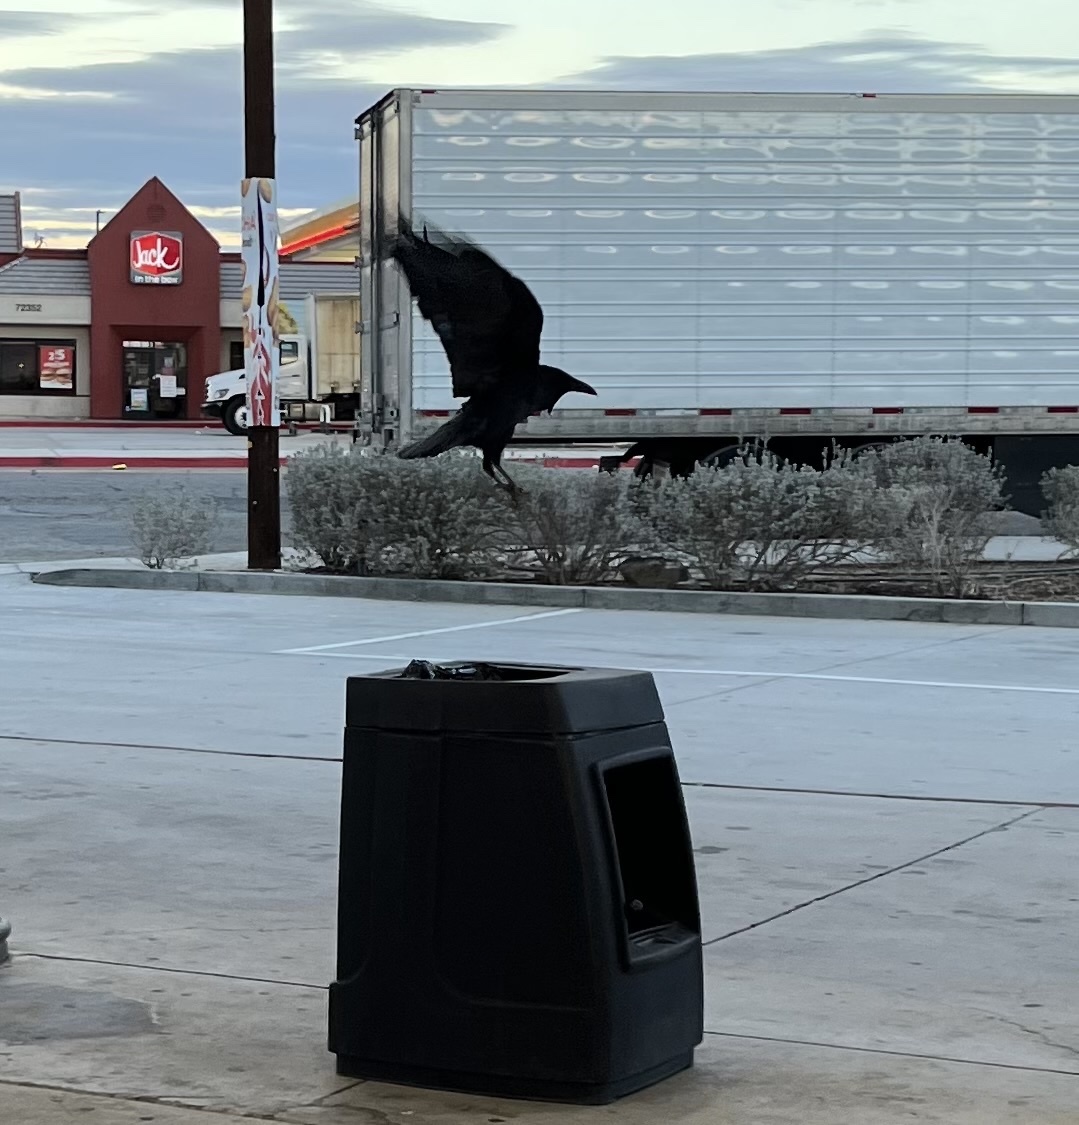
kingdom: Animalia
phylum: Chordata
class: Aves
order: Passeriformes
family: Corvidae
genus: Corvus
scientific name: Corvus corax
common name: Common raven
